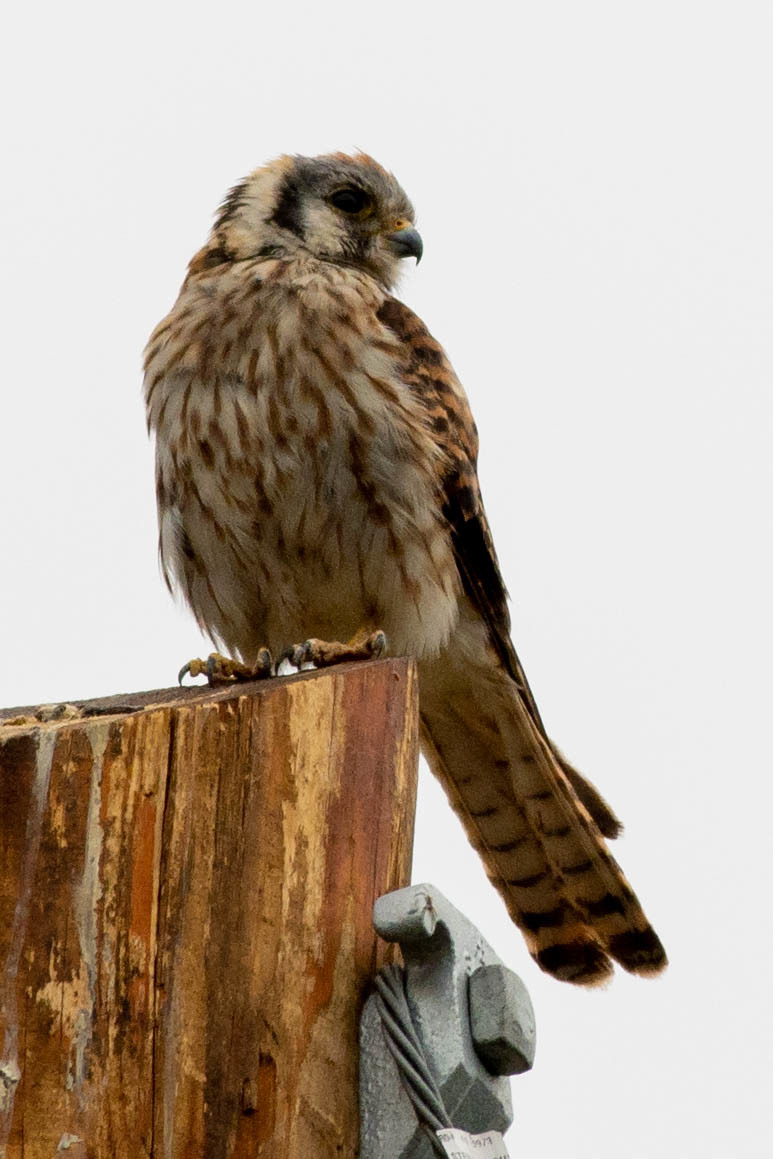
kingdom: Animalia
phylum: Chordata
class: Aves
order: Falconiformes
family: Falconidae
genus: Falco
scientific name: Falco sparverius
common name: American kestrel
